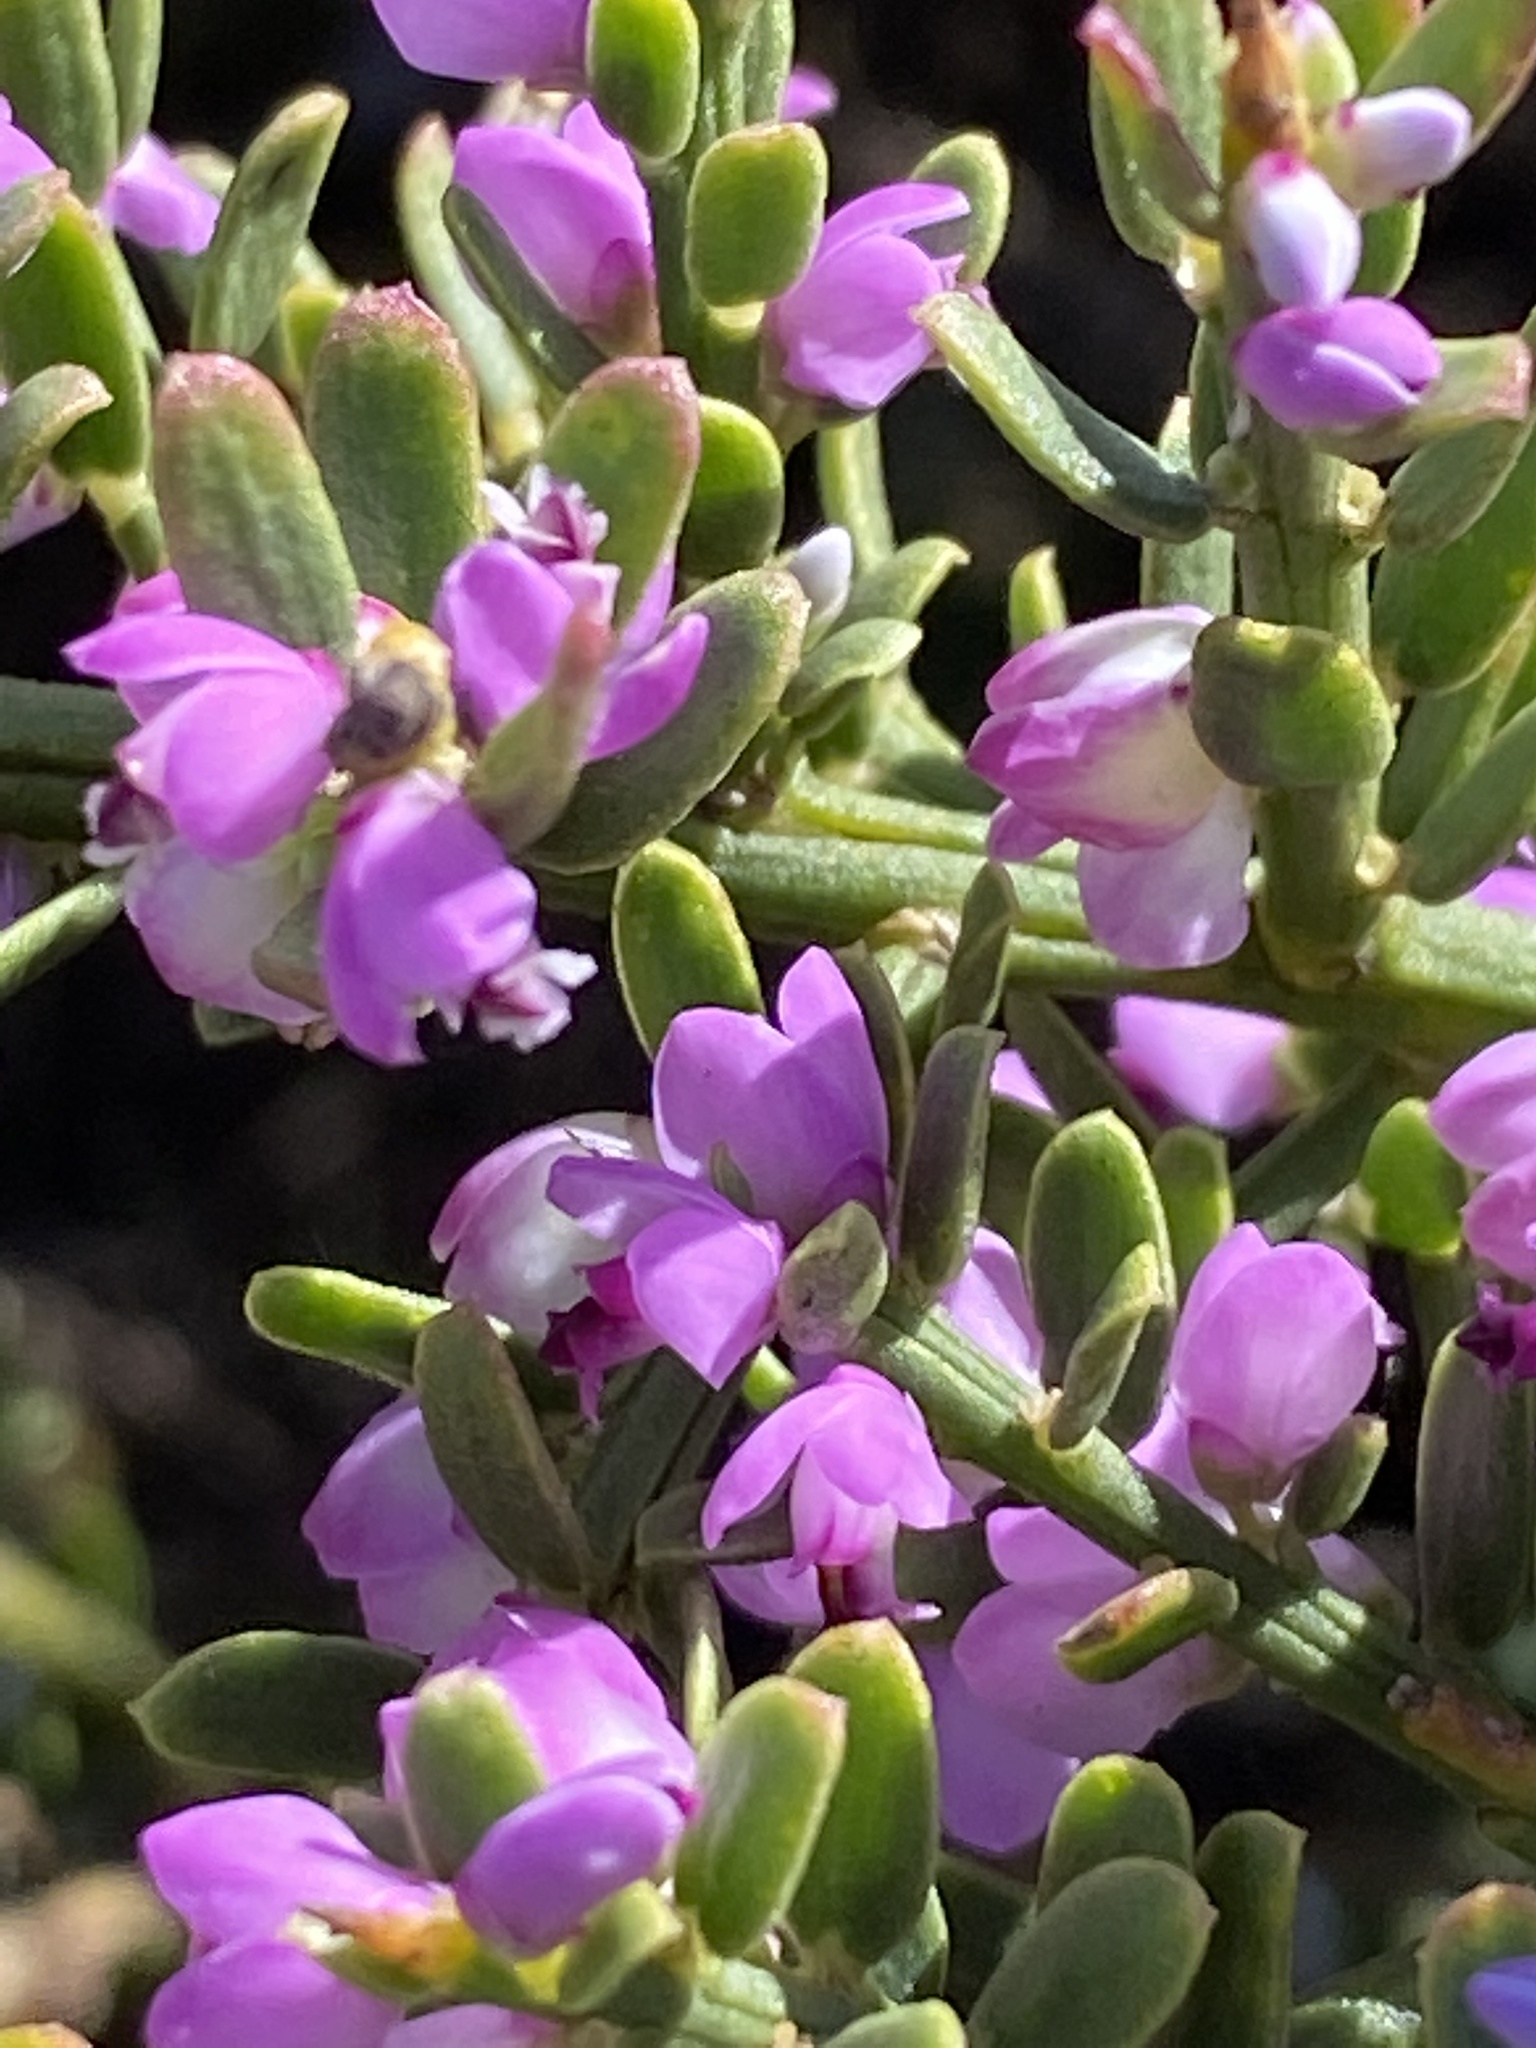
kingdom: Plantae
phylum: Tracheophyta
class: Magnoliopsida
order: Fabales
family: Polygalaceae
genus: Muraltia
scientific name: Muraltia spinosa
